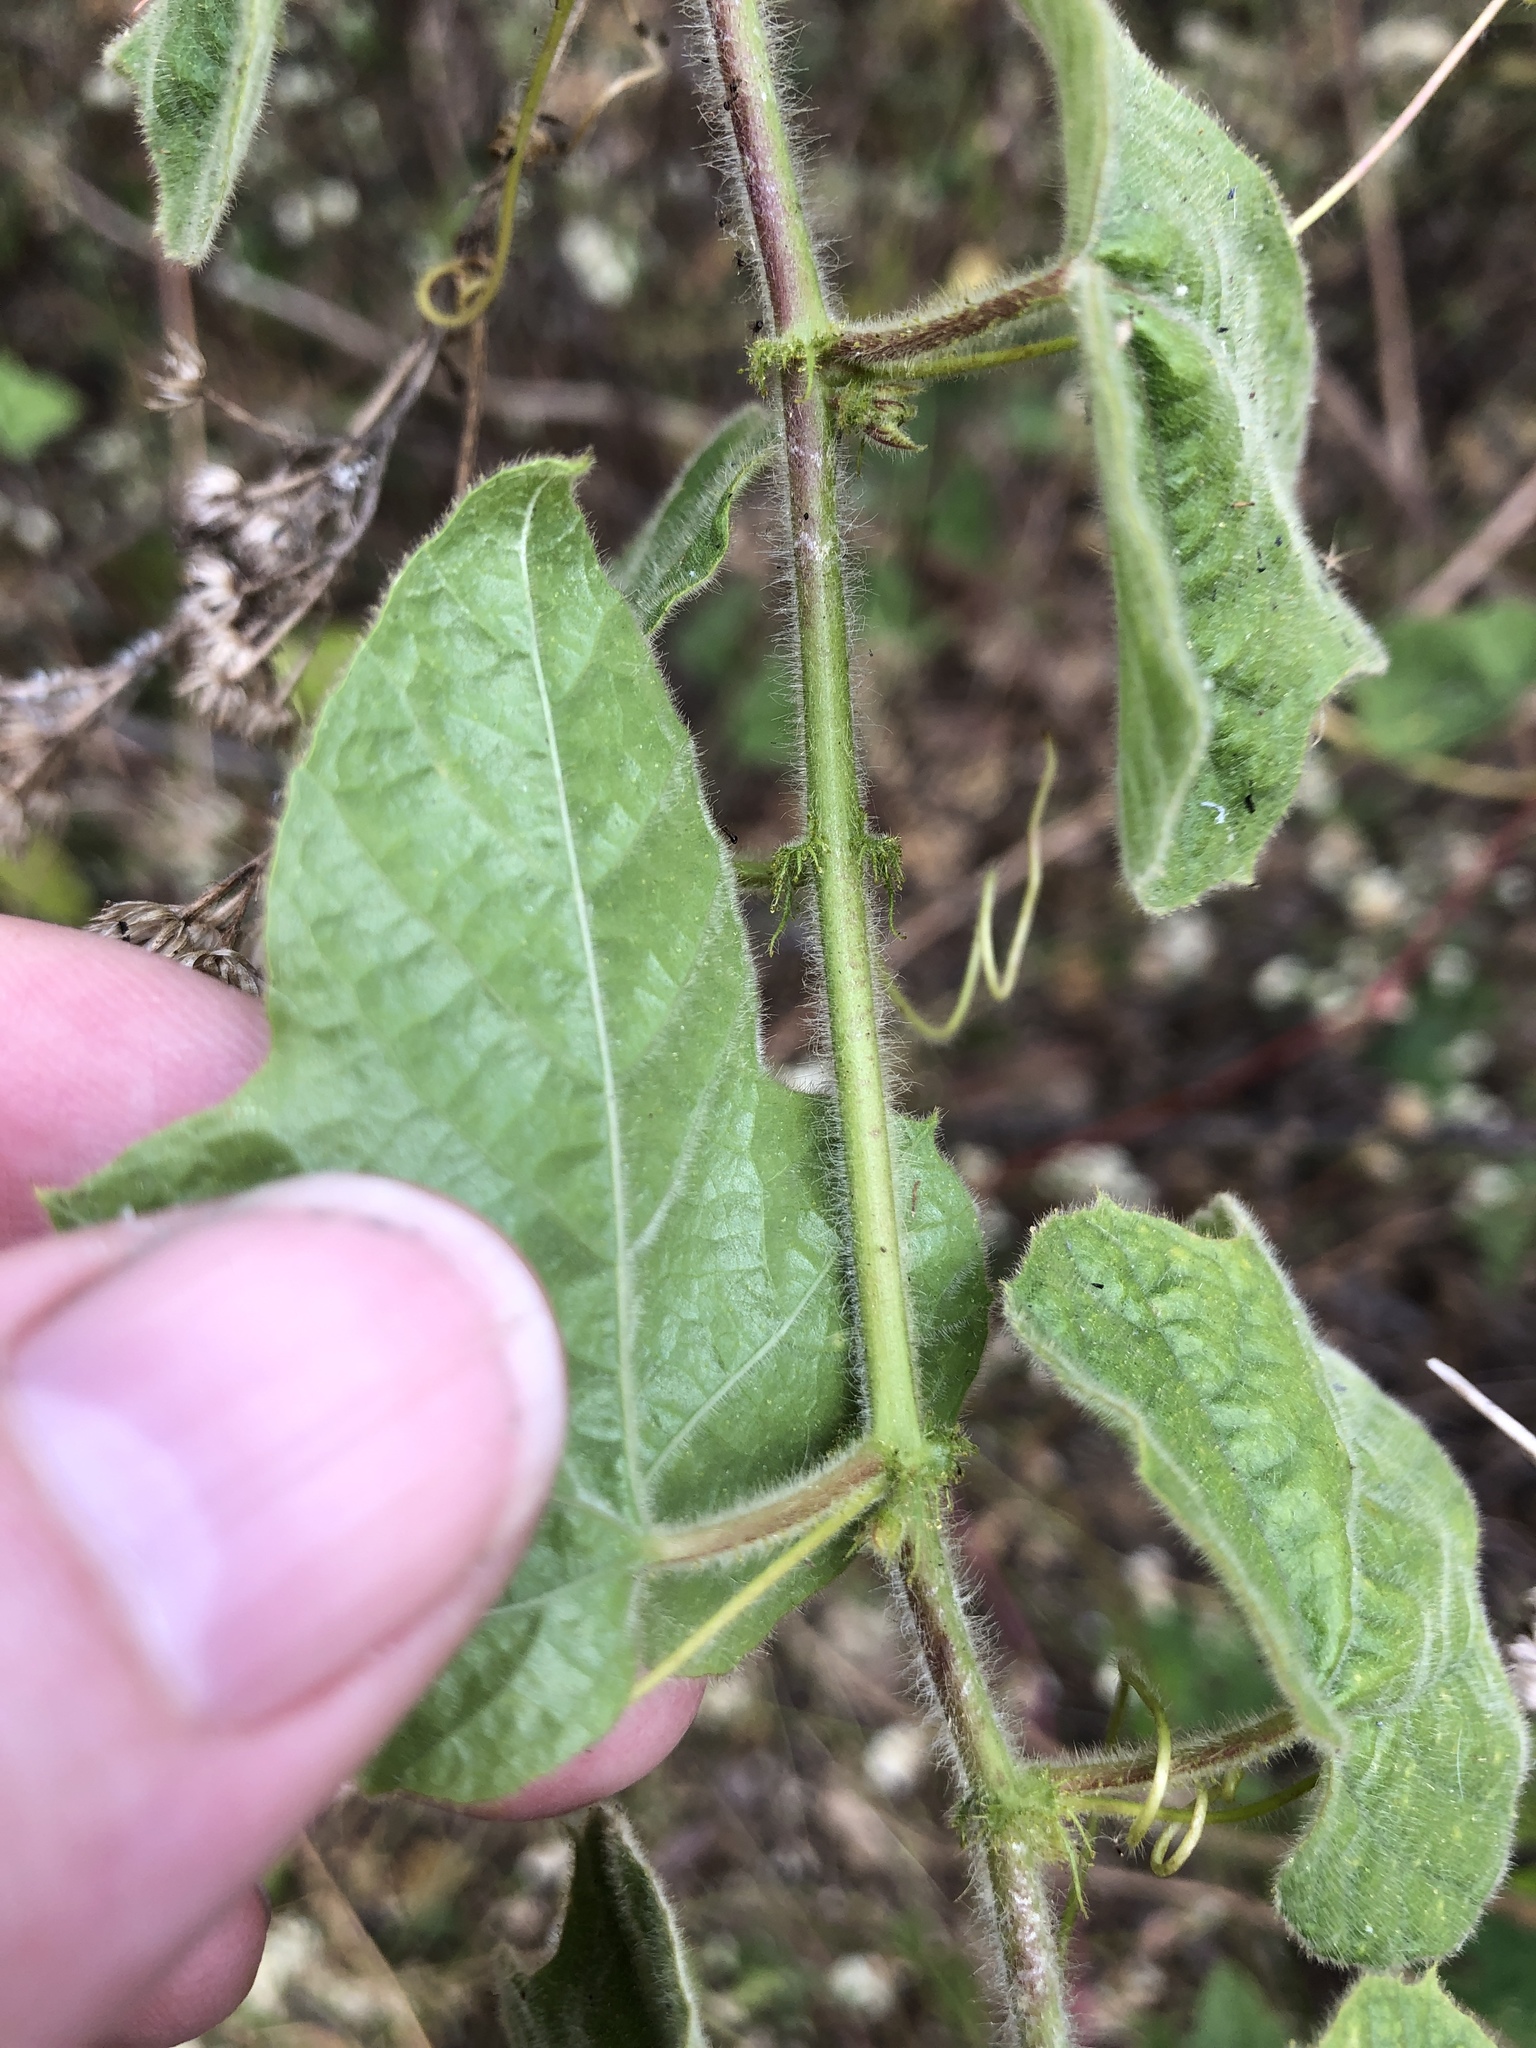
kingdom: Plantae
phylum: Tracheophyta
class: Magnoliopsida
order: Malpighiales
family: Passifloraceae
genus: Passiflora
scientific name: Passiflora foetida
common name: Fetid passionflower
